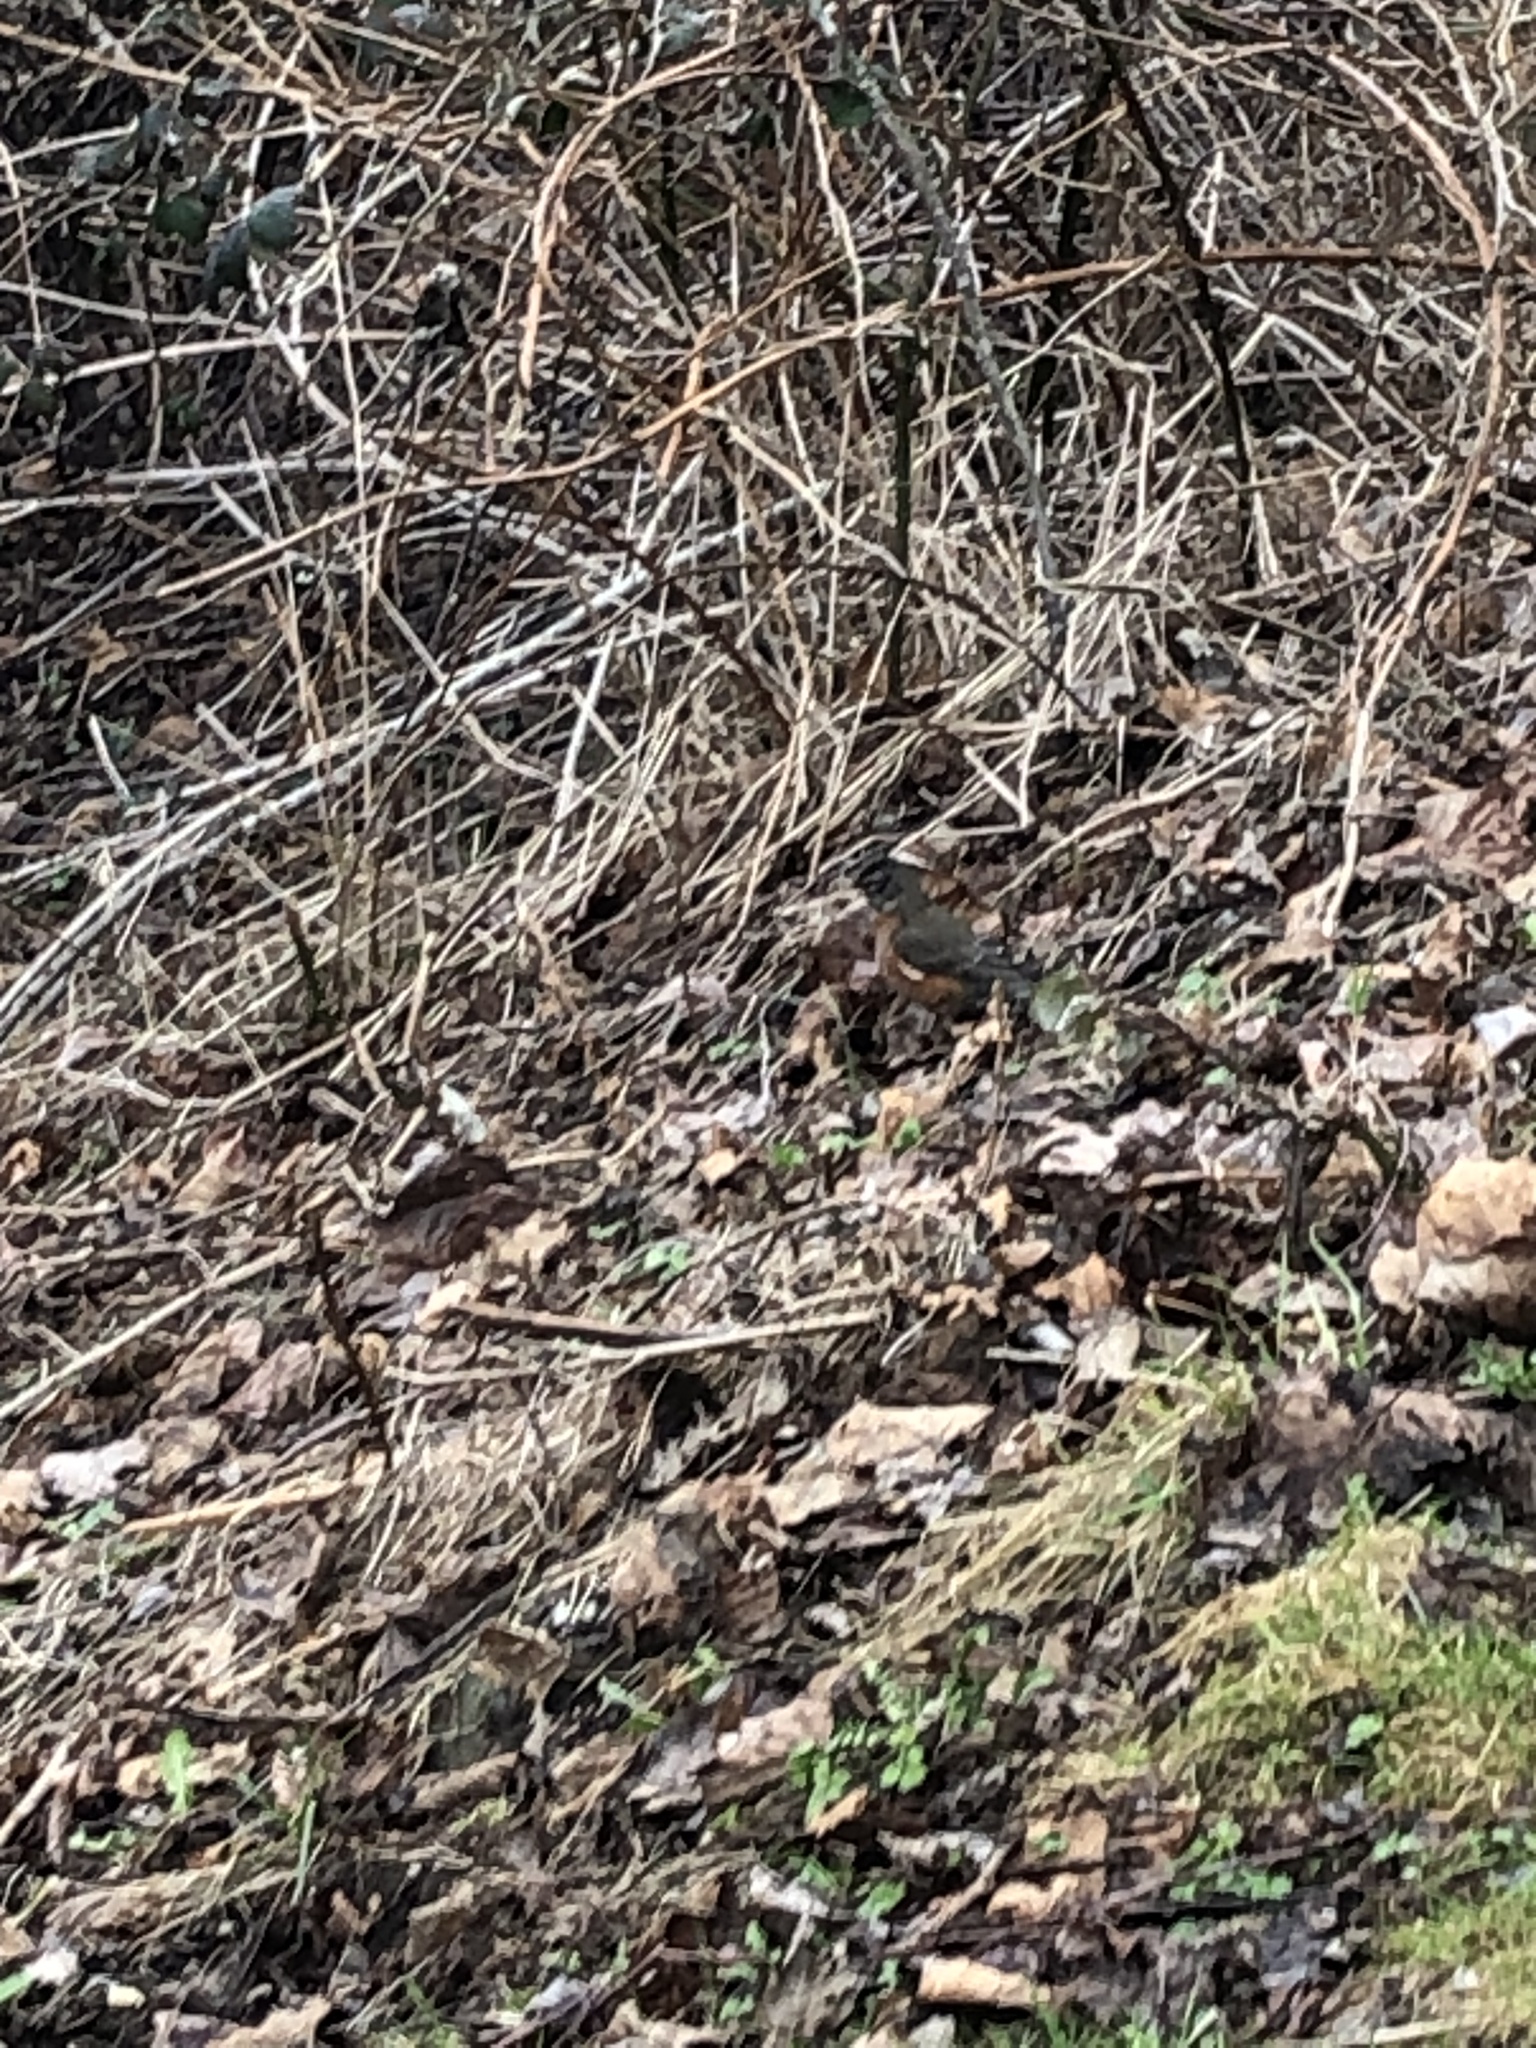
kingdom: Animalia
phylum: Chordata
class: Aves
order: Passeriformes
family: Turdidae
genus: Turdus
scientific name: Turdus migratorius
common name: American robin
